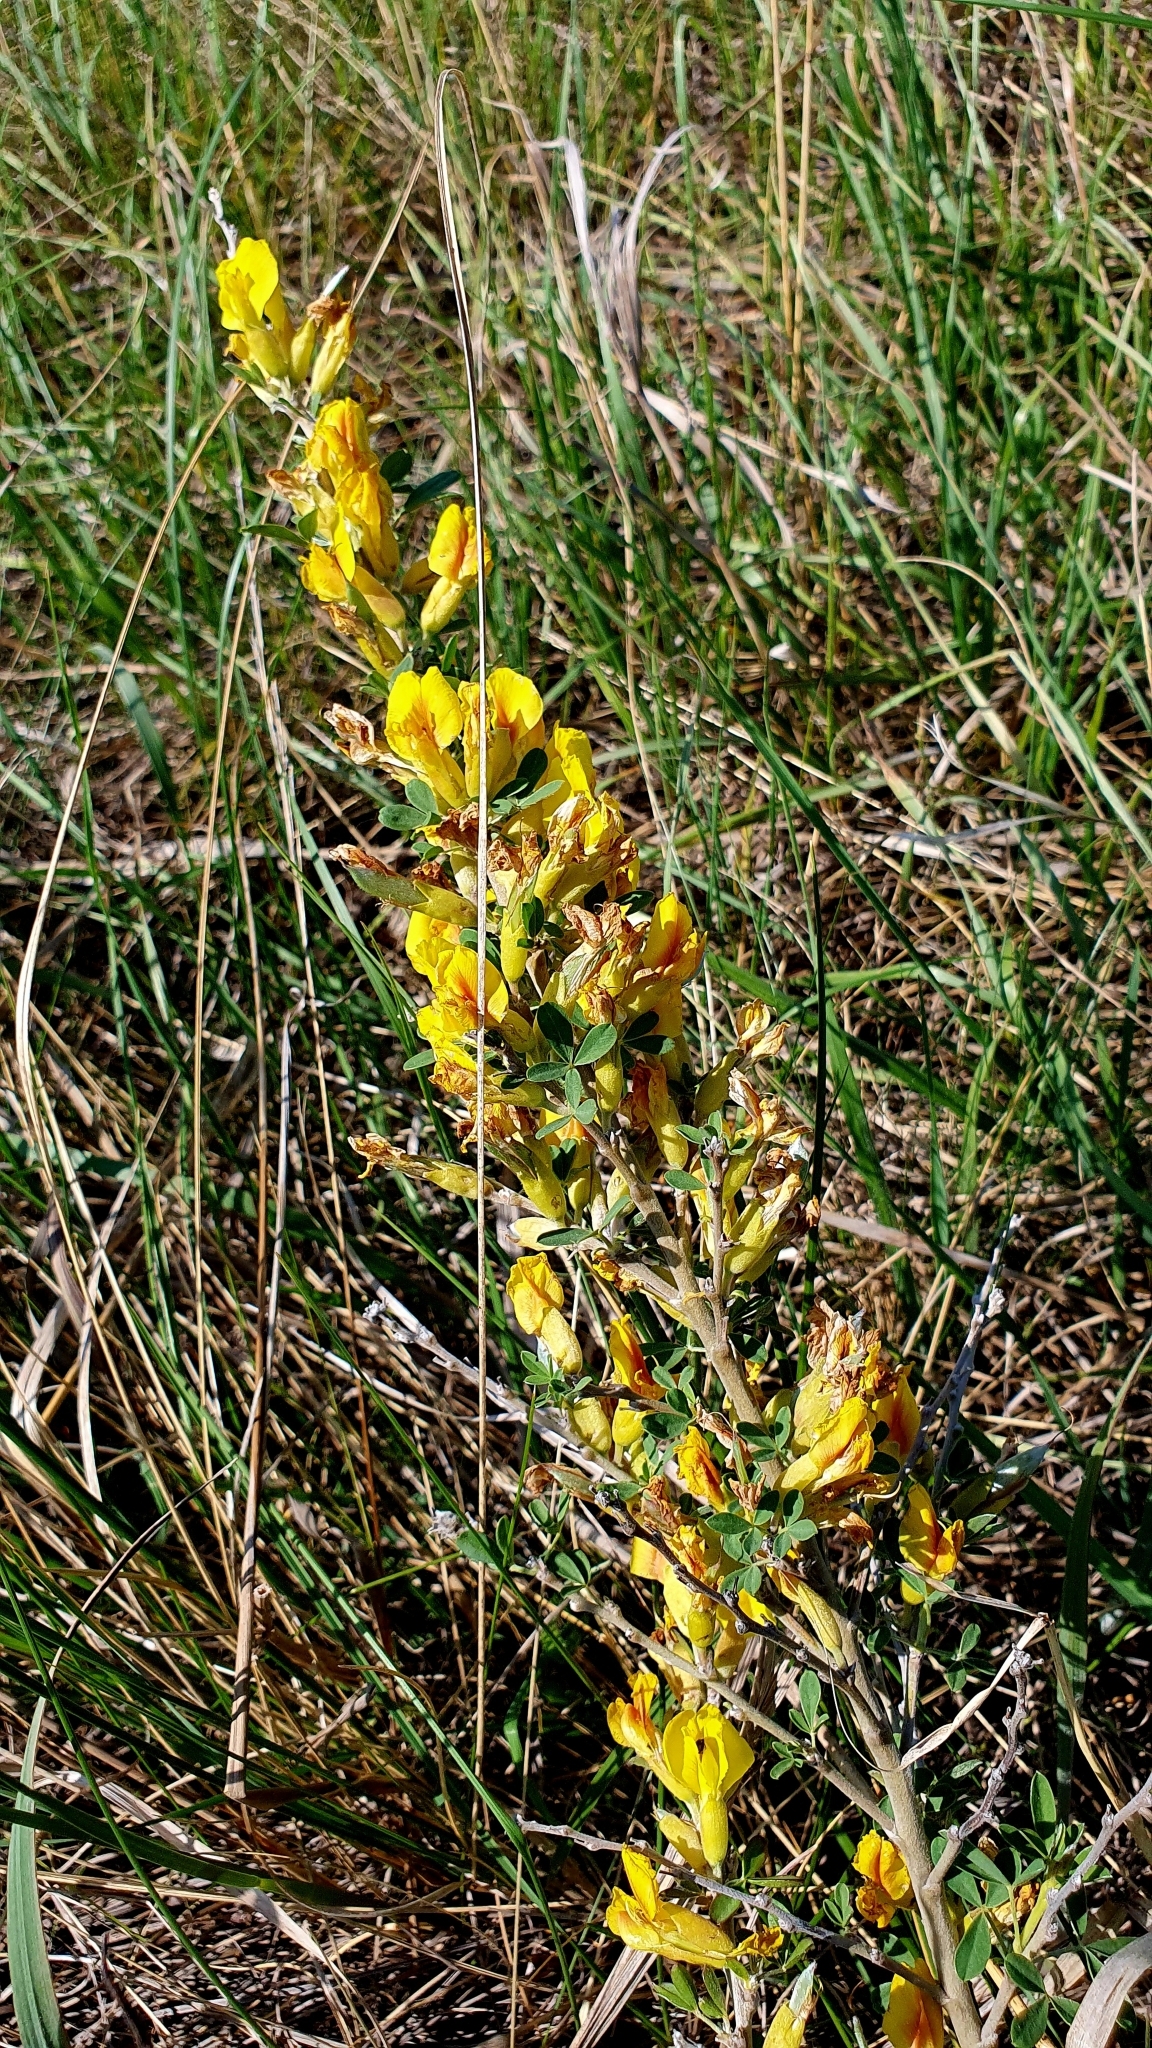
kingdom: Plantae
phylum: Tracheophyta
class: Magnoliopsida
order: Fabales
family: Fabaceae
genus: Chamaecytisus
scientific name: Chamaecytisus ruthenicus
